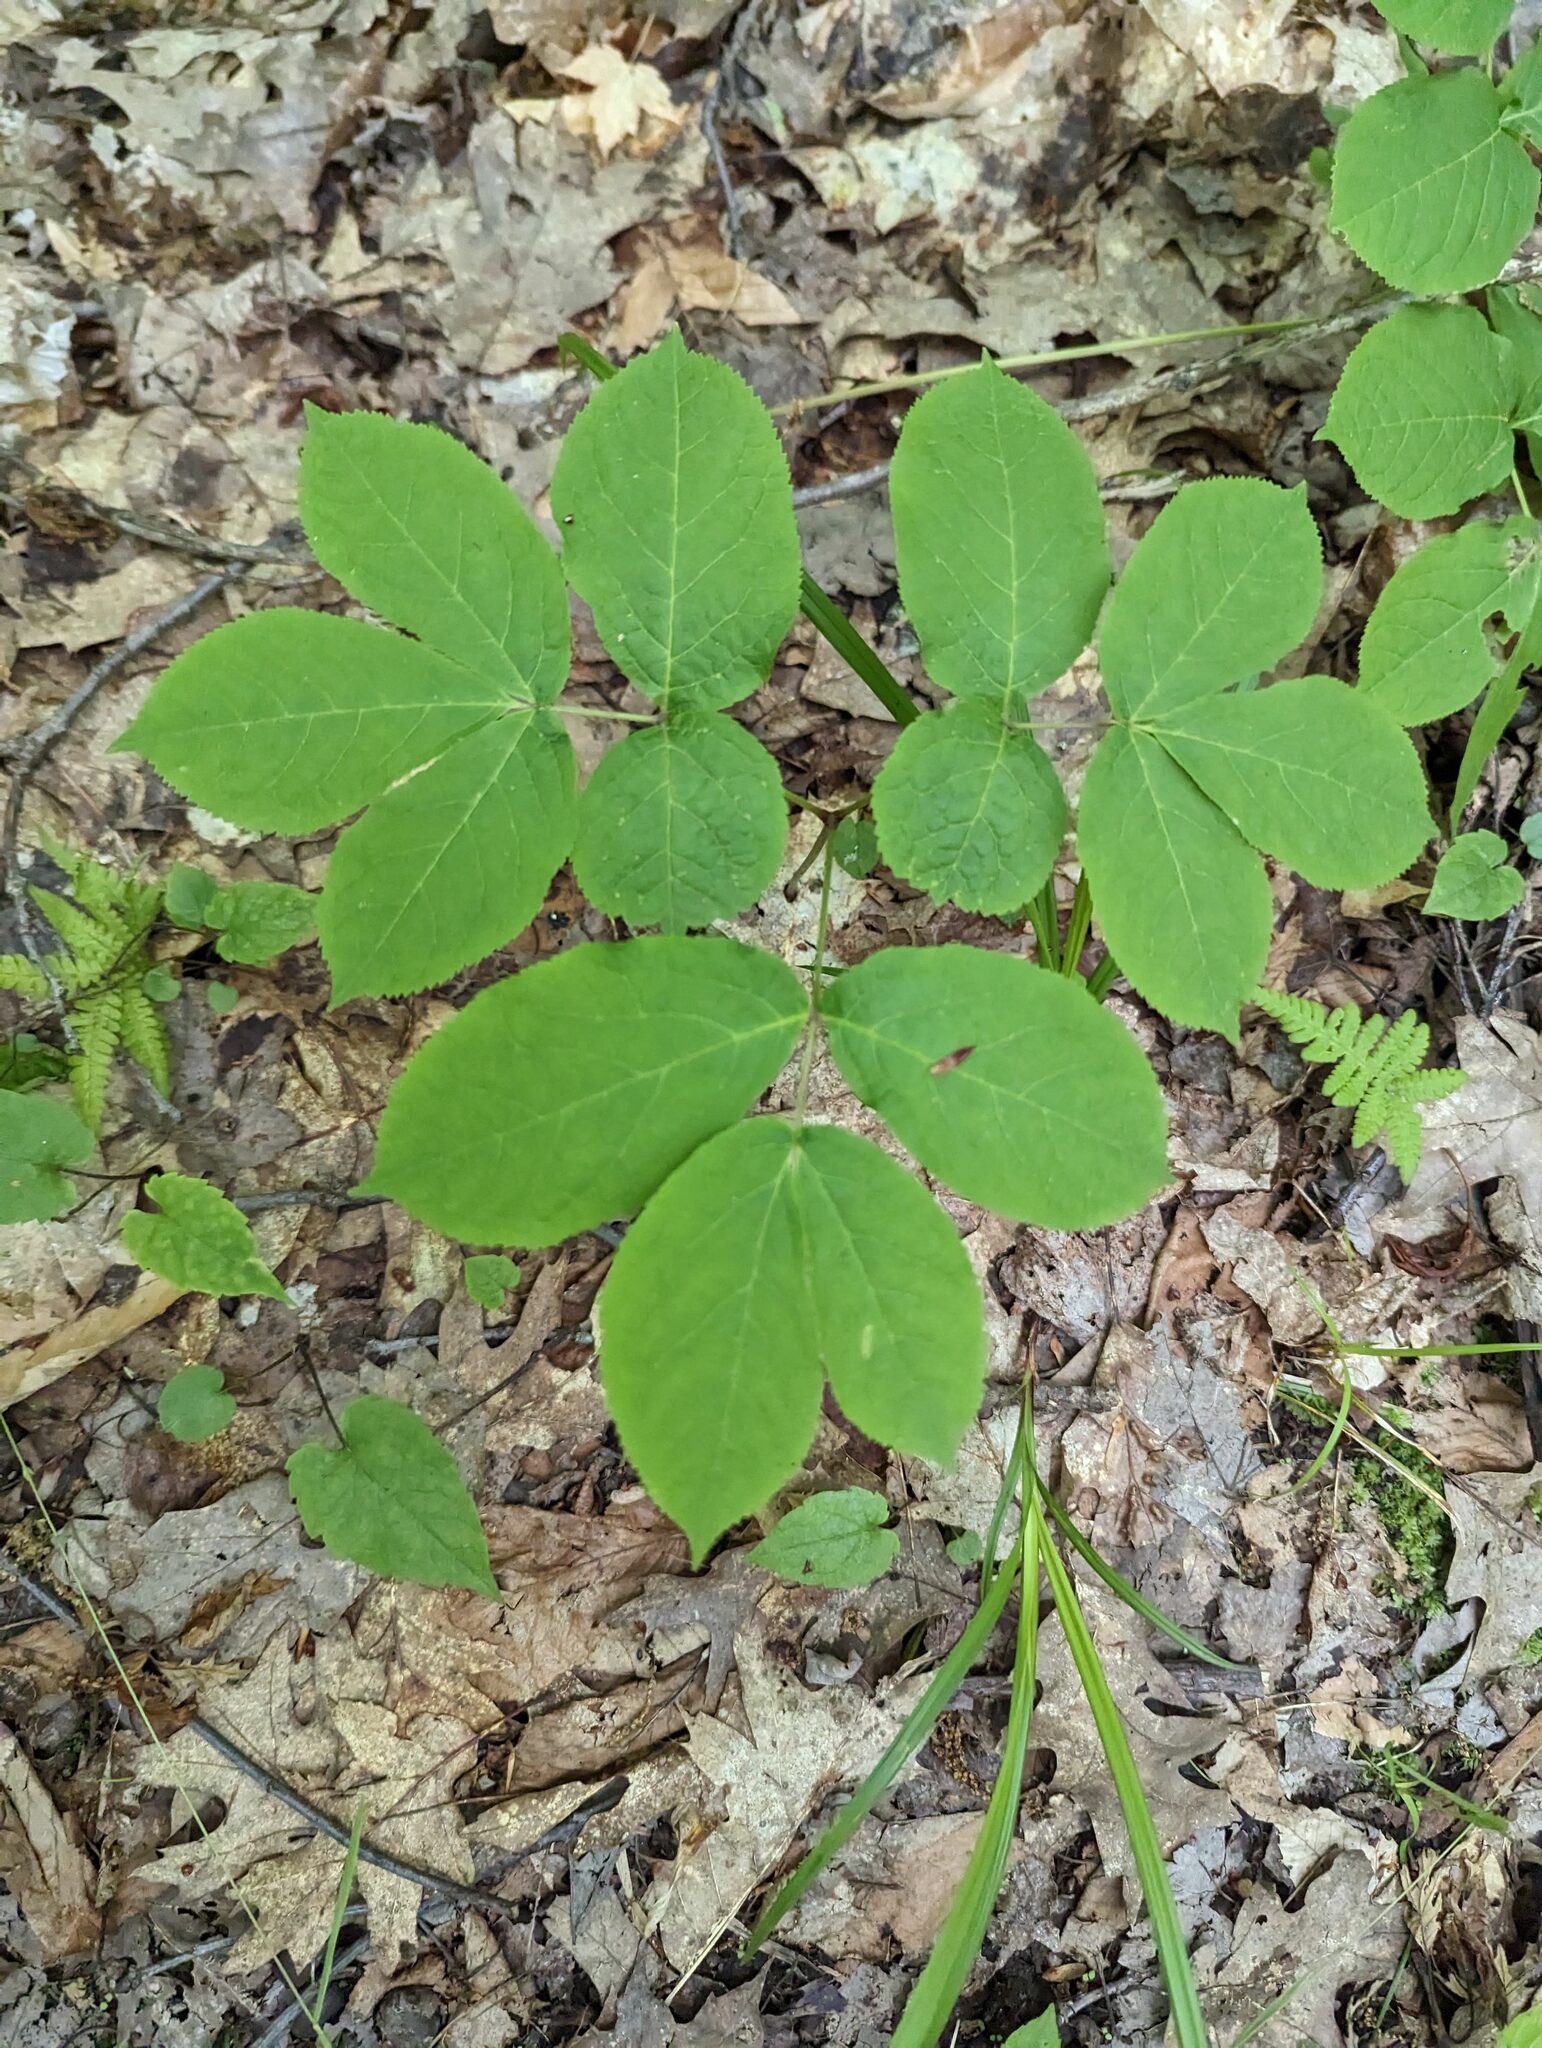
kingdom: Plantae
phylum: Tracheophyta
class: Magnoliopsida
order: Apiales
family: Araliaceae
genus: Aralia
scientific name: Aralia nudicaulis
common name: Wild sarsaparilla
